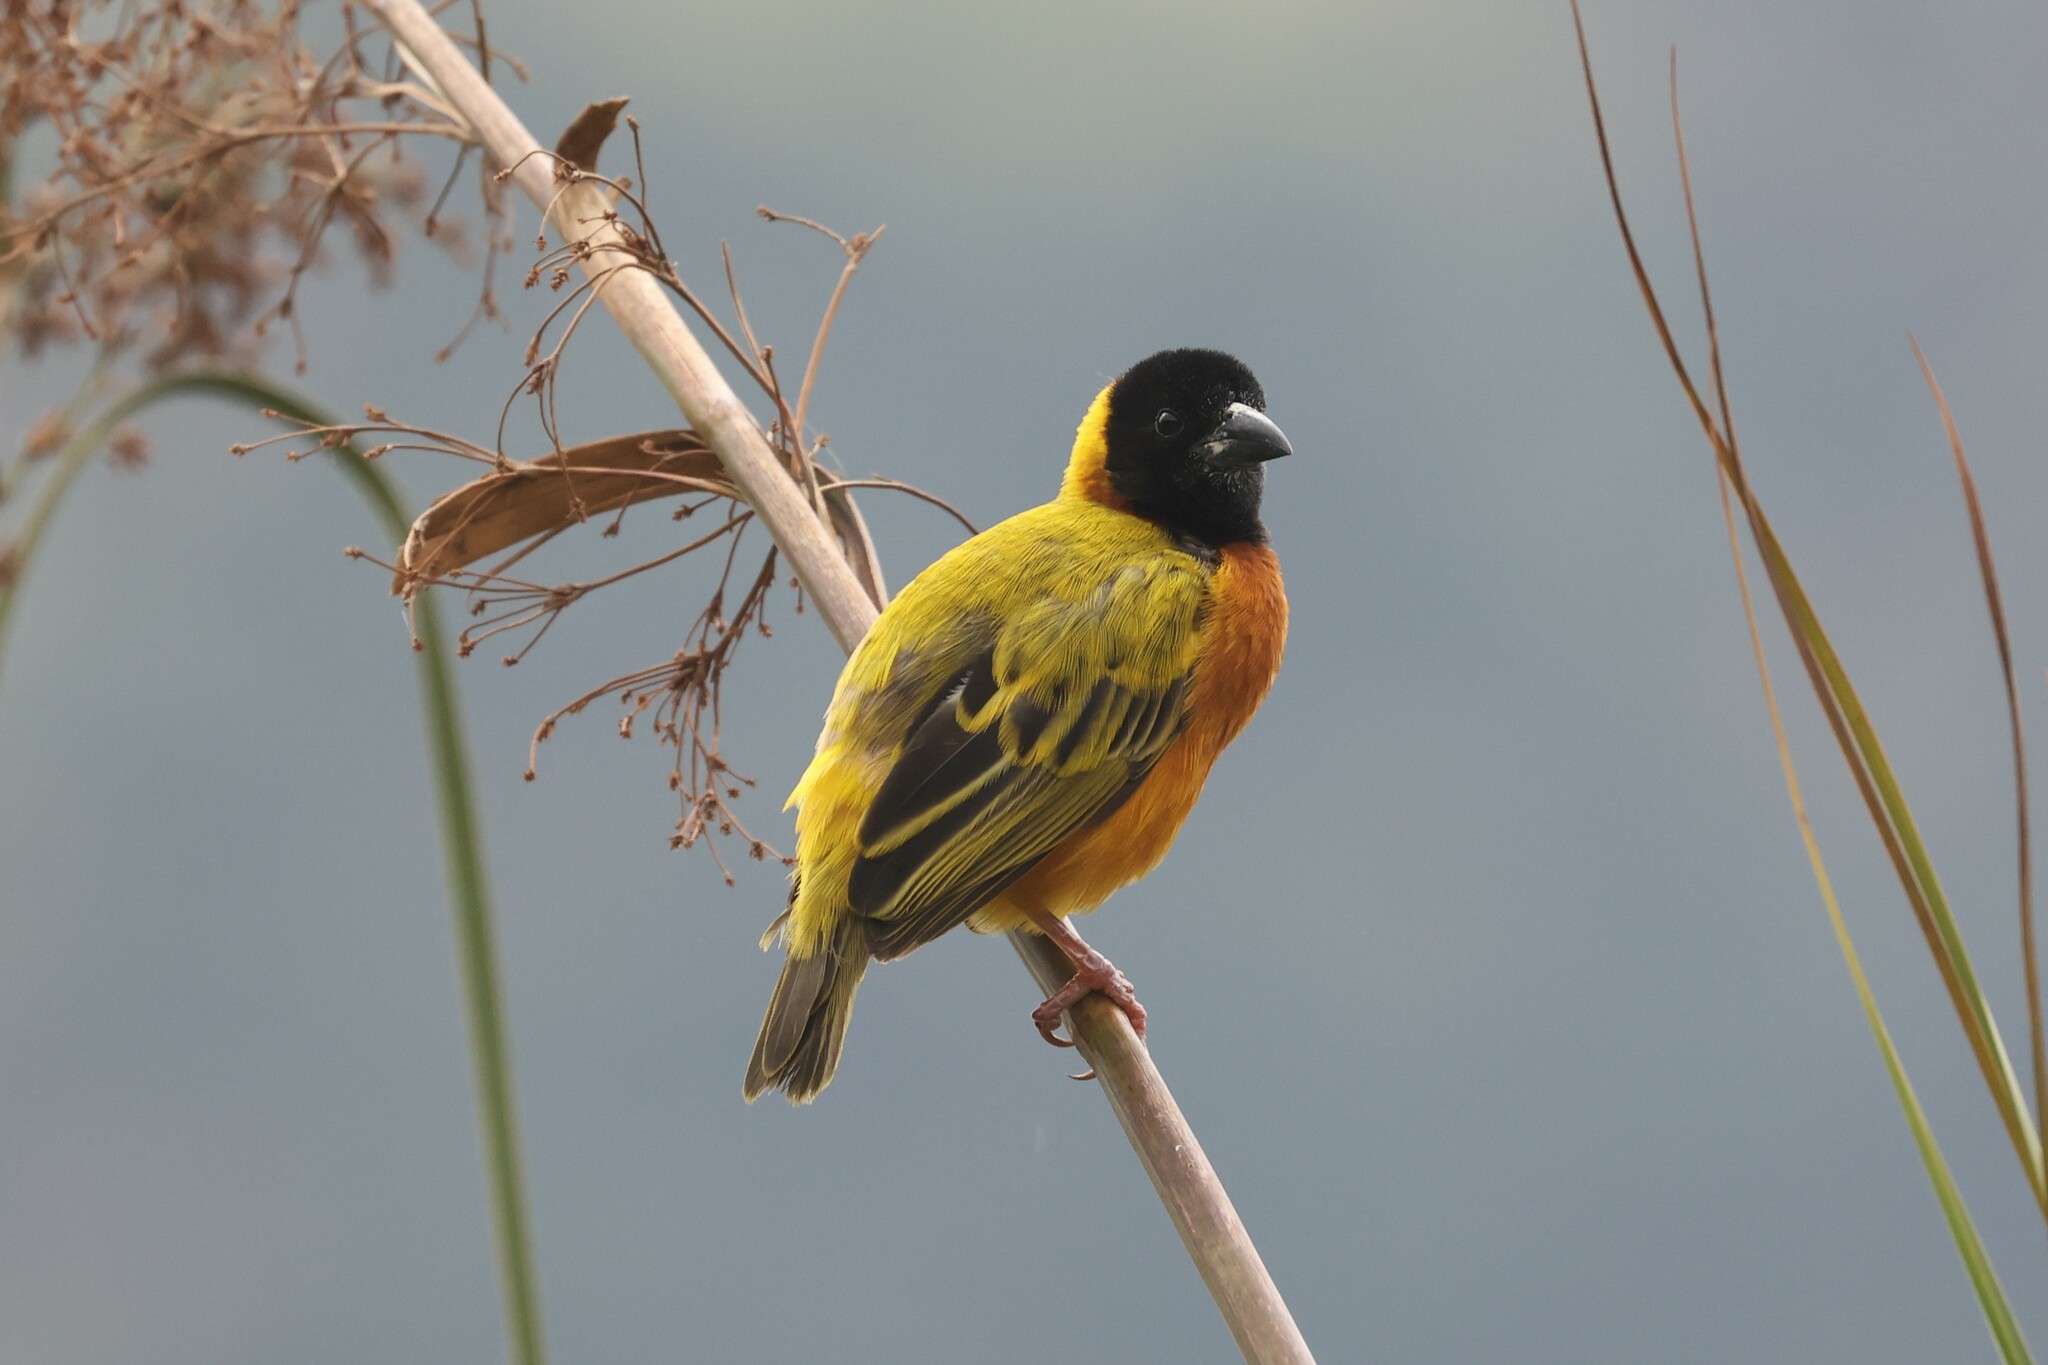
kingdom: Animalia
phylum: Chordata
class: Aves
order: Passeriformes
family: Ploceidae
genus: Ploceus
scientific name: Ploceus melanocephalus
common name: Black-headed weaver
